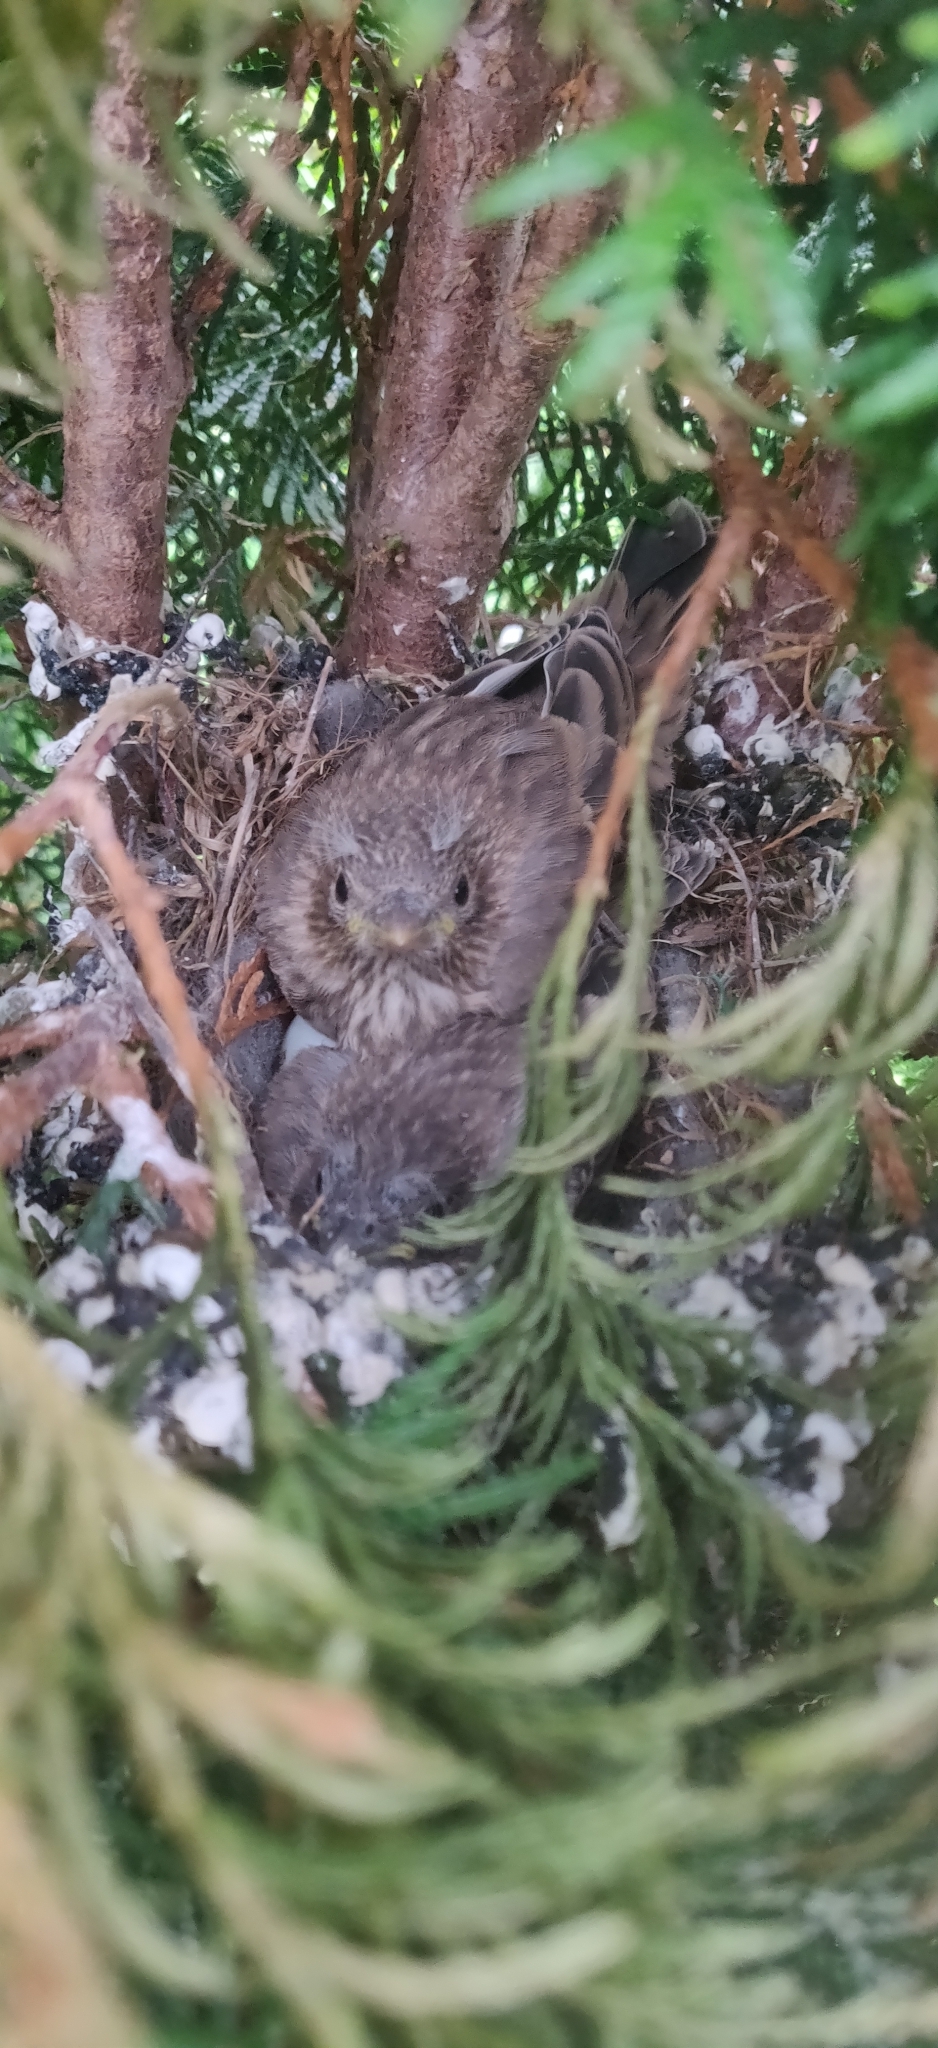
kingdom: Animalia
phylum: Chordata
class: Aves
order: Passeriformes
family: Fringillidae
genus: Haemorhous
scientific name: Haemorhous mexicanus
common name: House finch
